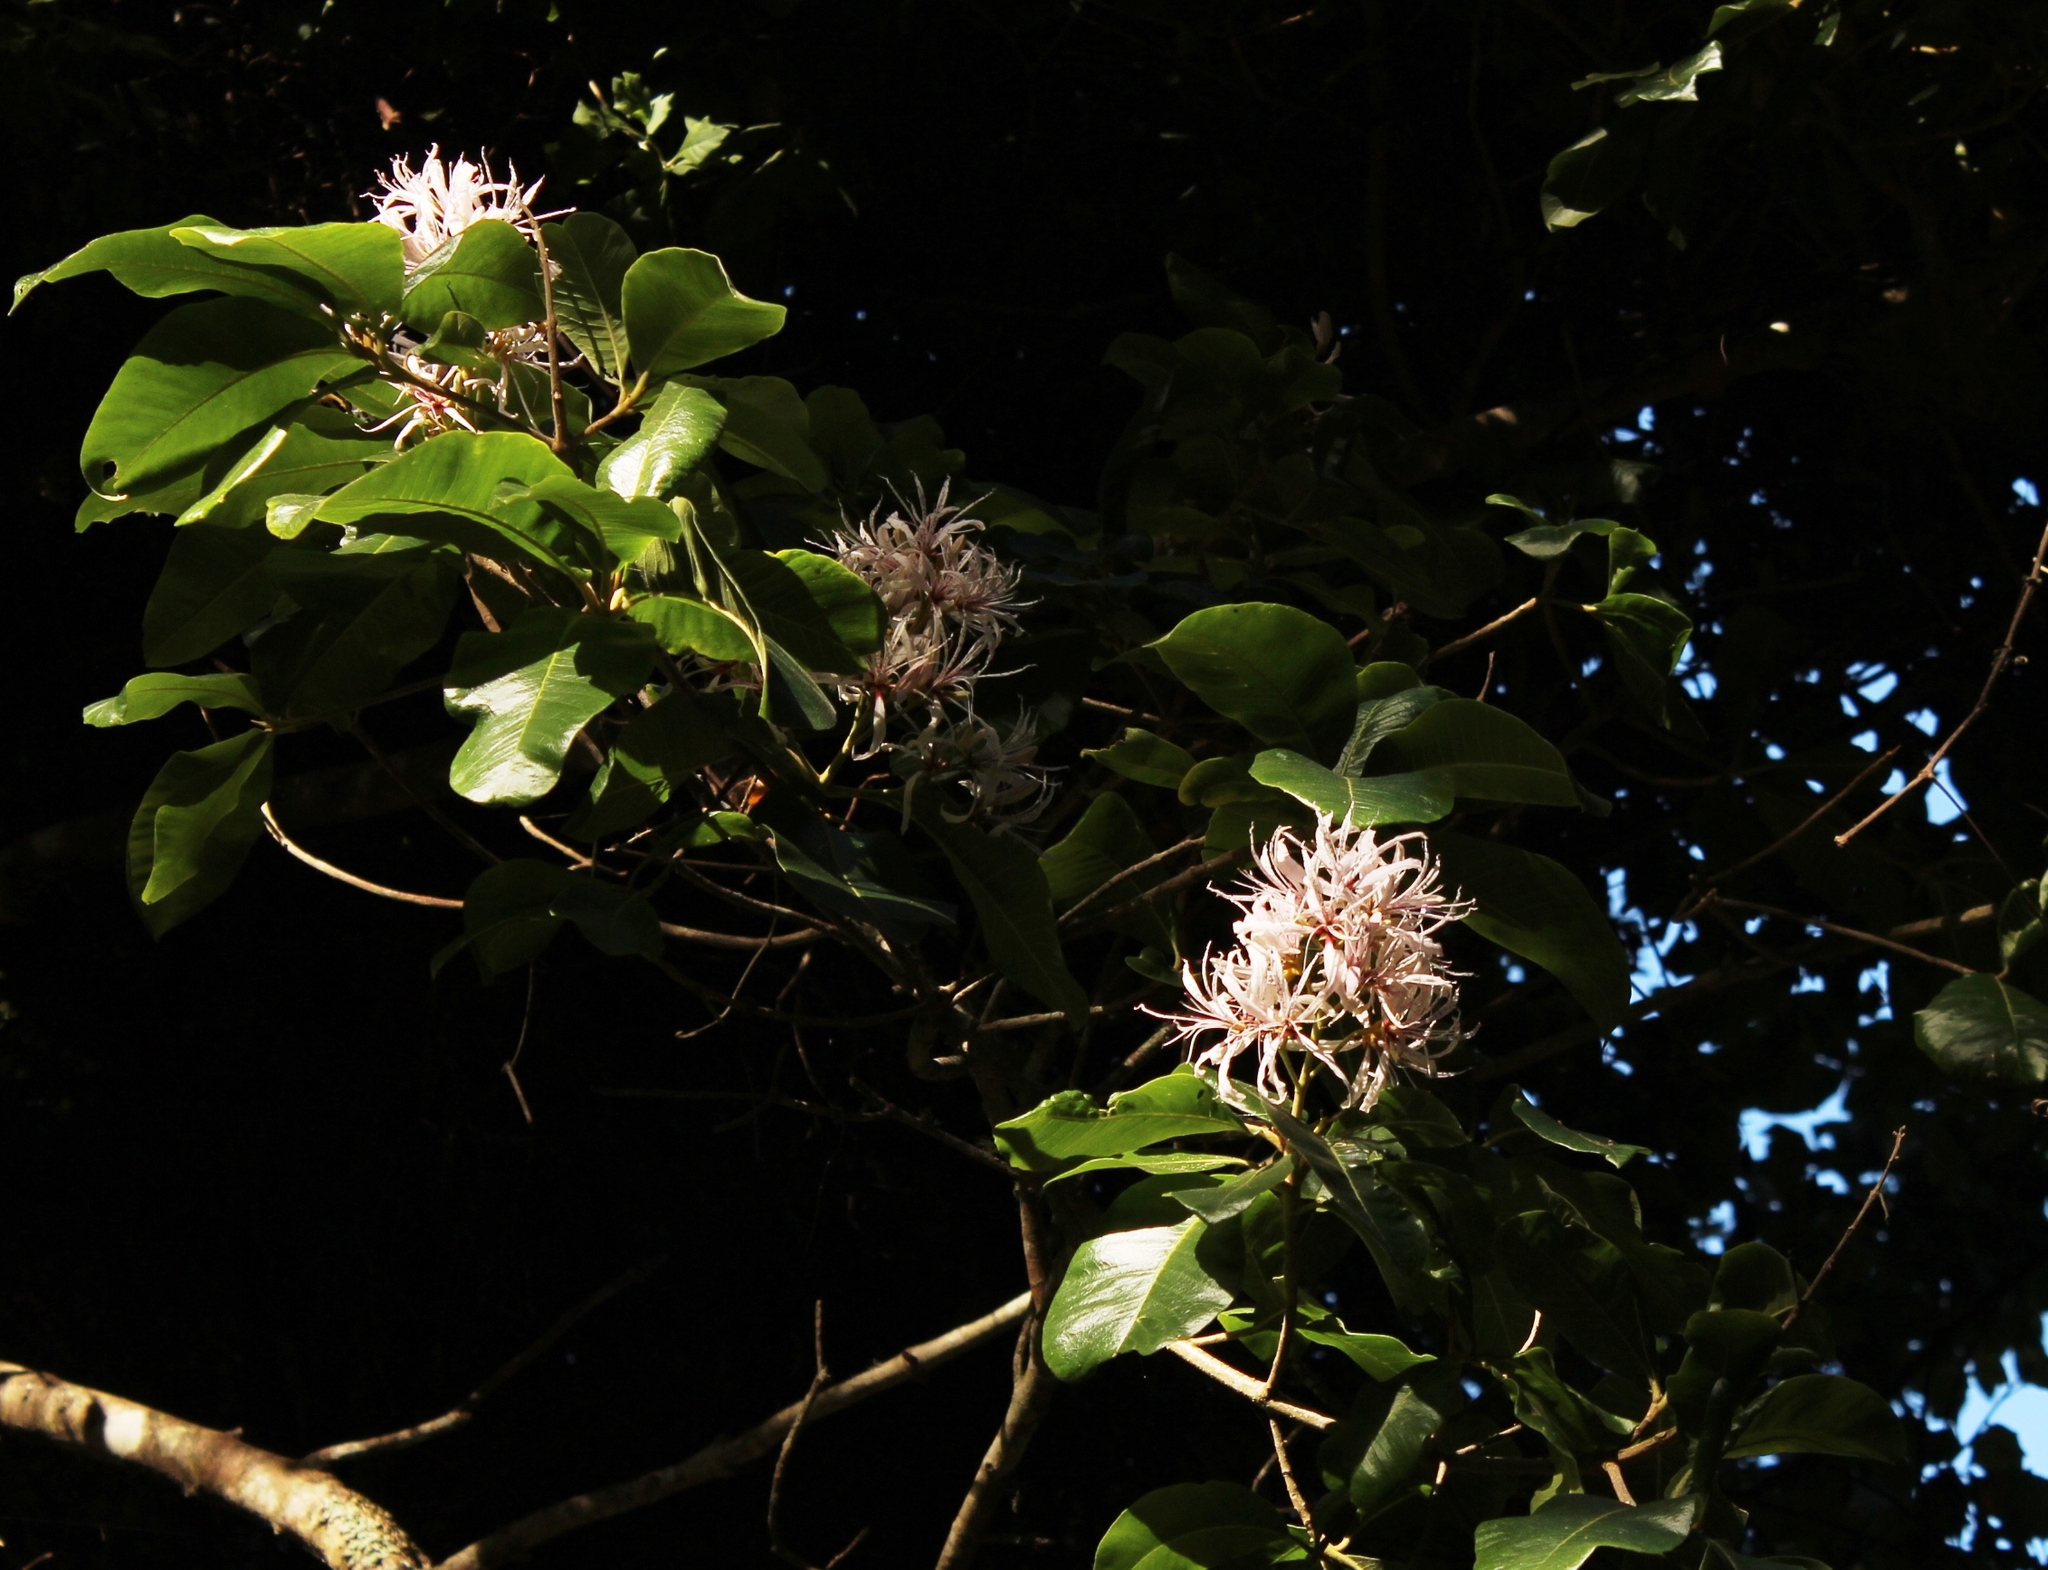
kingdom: Plantae
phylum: Tracheophyta
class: Magnoliopsida
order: Sapindales
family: Rutaceae
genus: Calodendrum
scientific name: Calodendrum capense
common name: Cape chestnut
